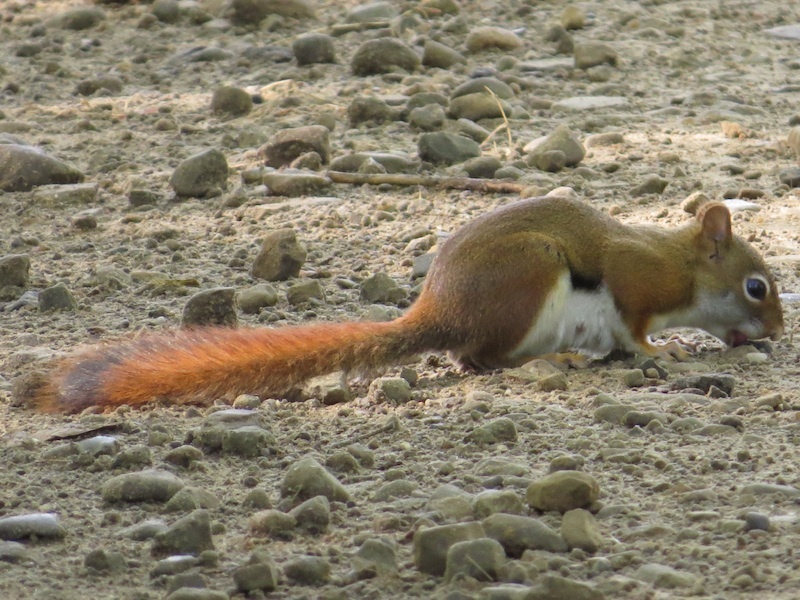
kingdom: Animalia
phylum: Chordata
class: Mammalia
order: Rodentia
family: Sciuridae
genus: Tamiasciurus
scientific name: Tamiasciurus hudsonicus
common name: Red squirrel
